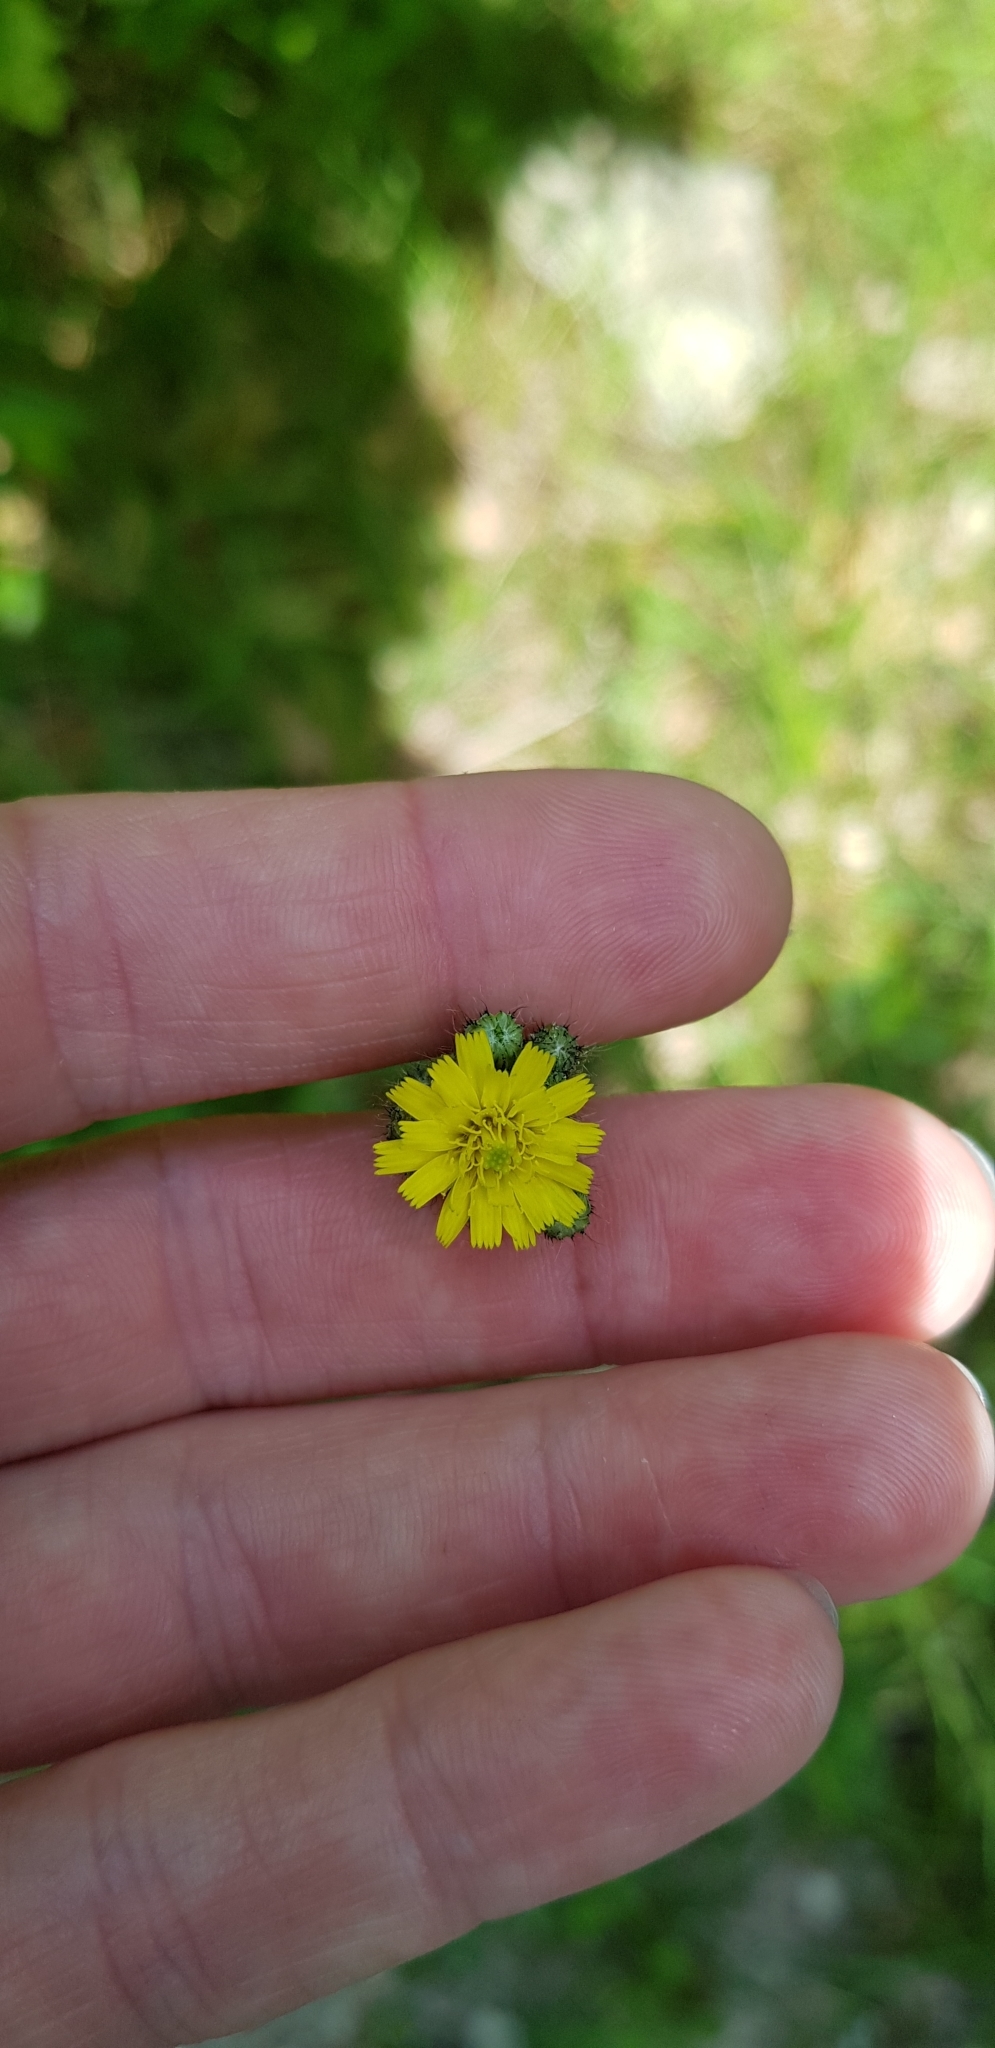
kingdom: Plantae
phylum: Tracheophyta
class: Magnoliopsida
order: Asterales
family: Asteraceae
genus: Pilosella
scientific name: Pilosella
